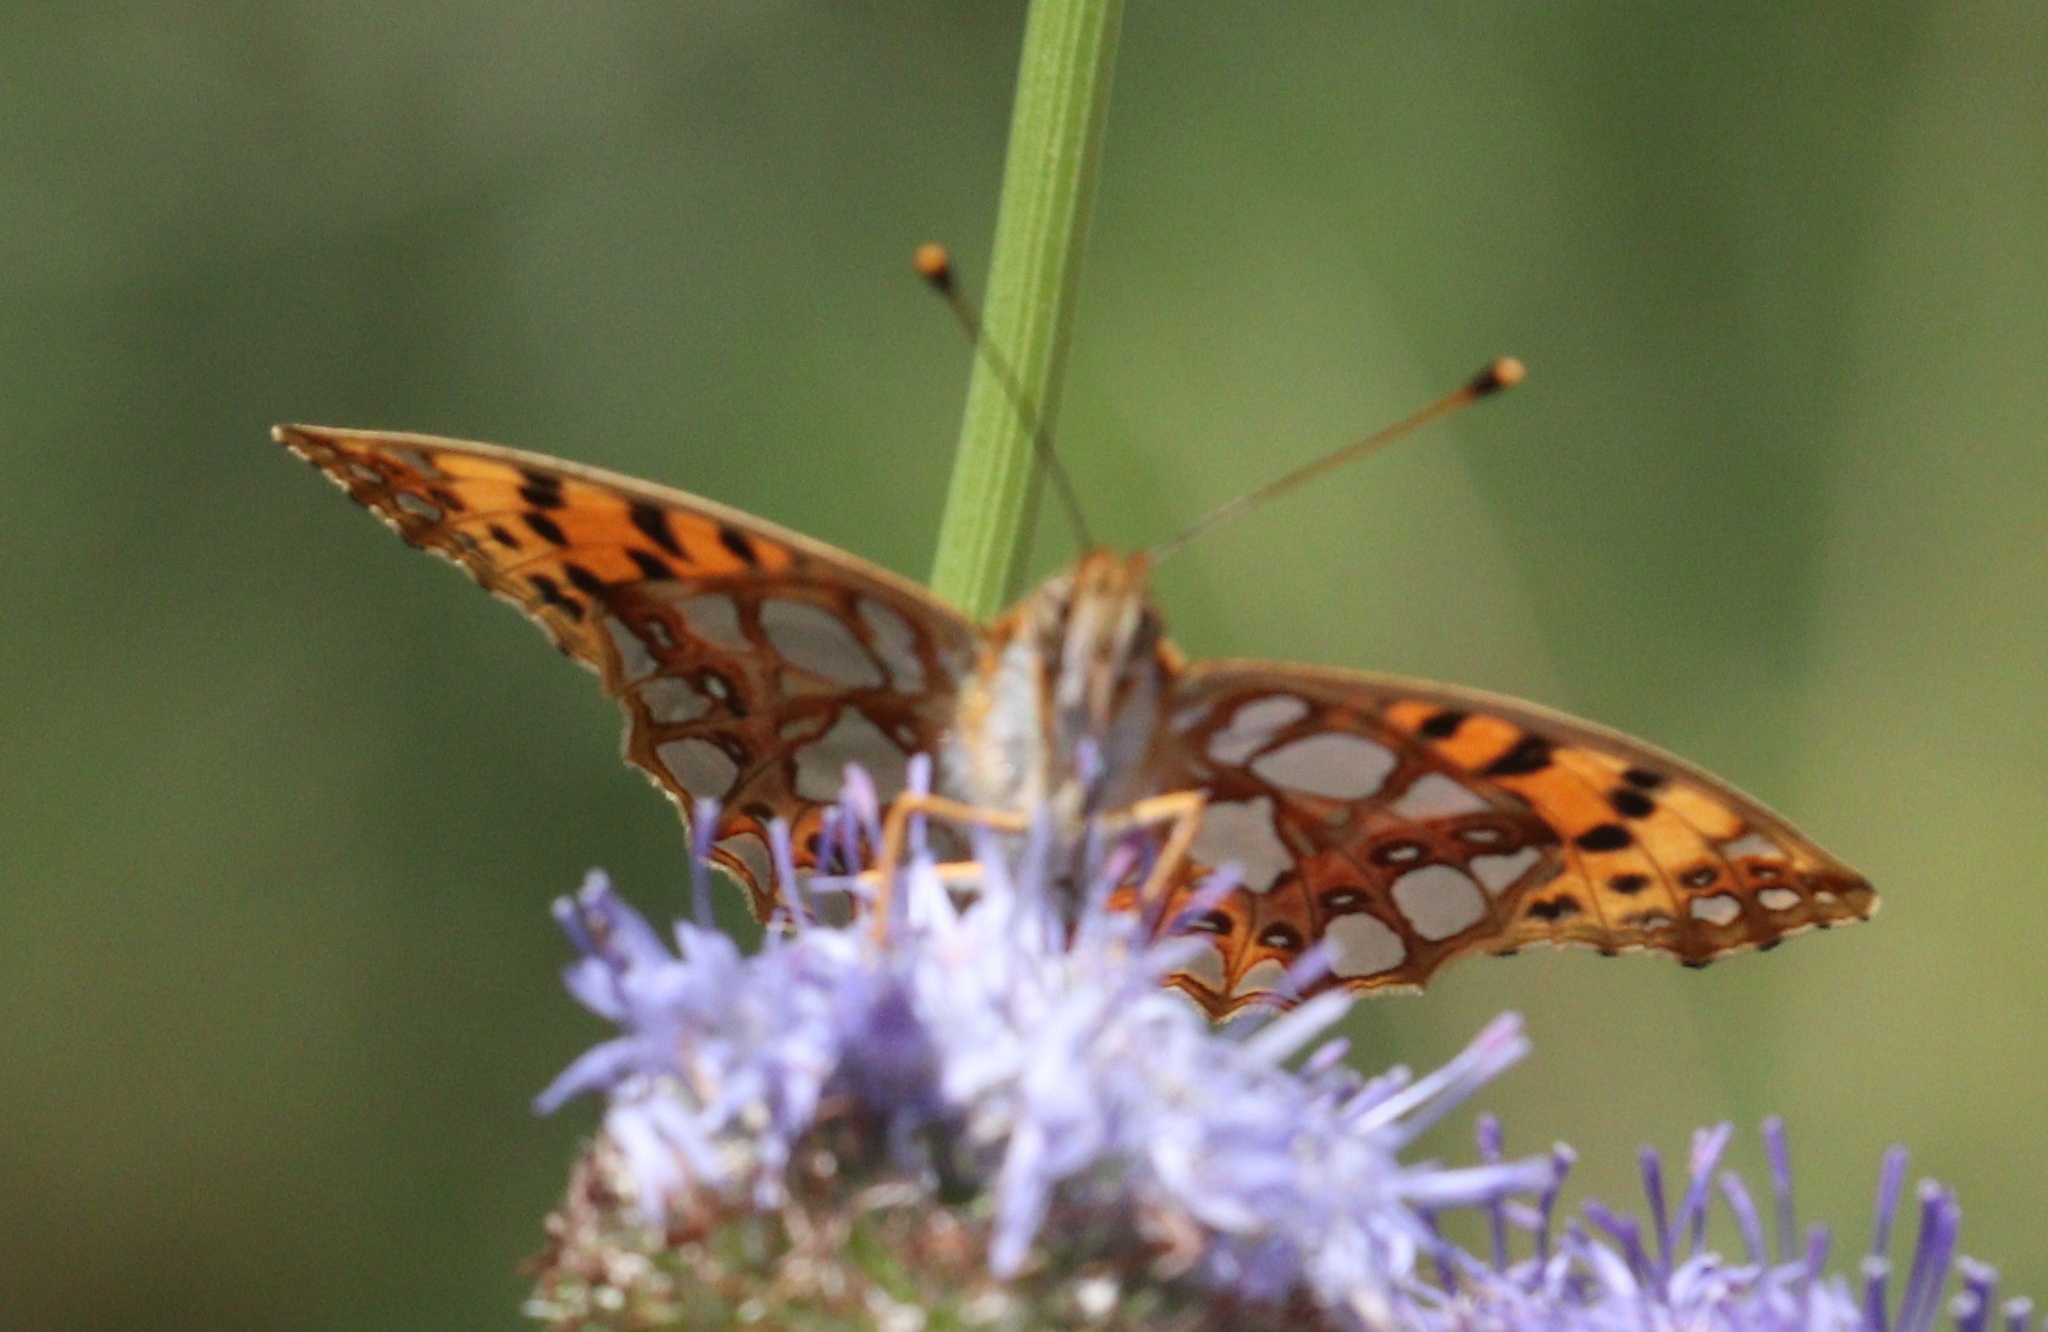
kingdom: Animalia
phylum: Arthropoda
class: Insecta
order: Lepidoptera
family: Nymphalidae
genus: Issoria
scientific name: Issoria lathonia
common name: Queen of spain fritillary
